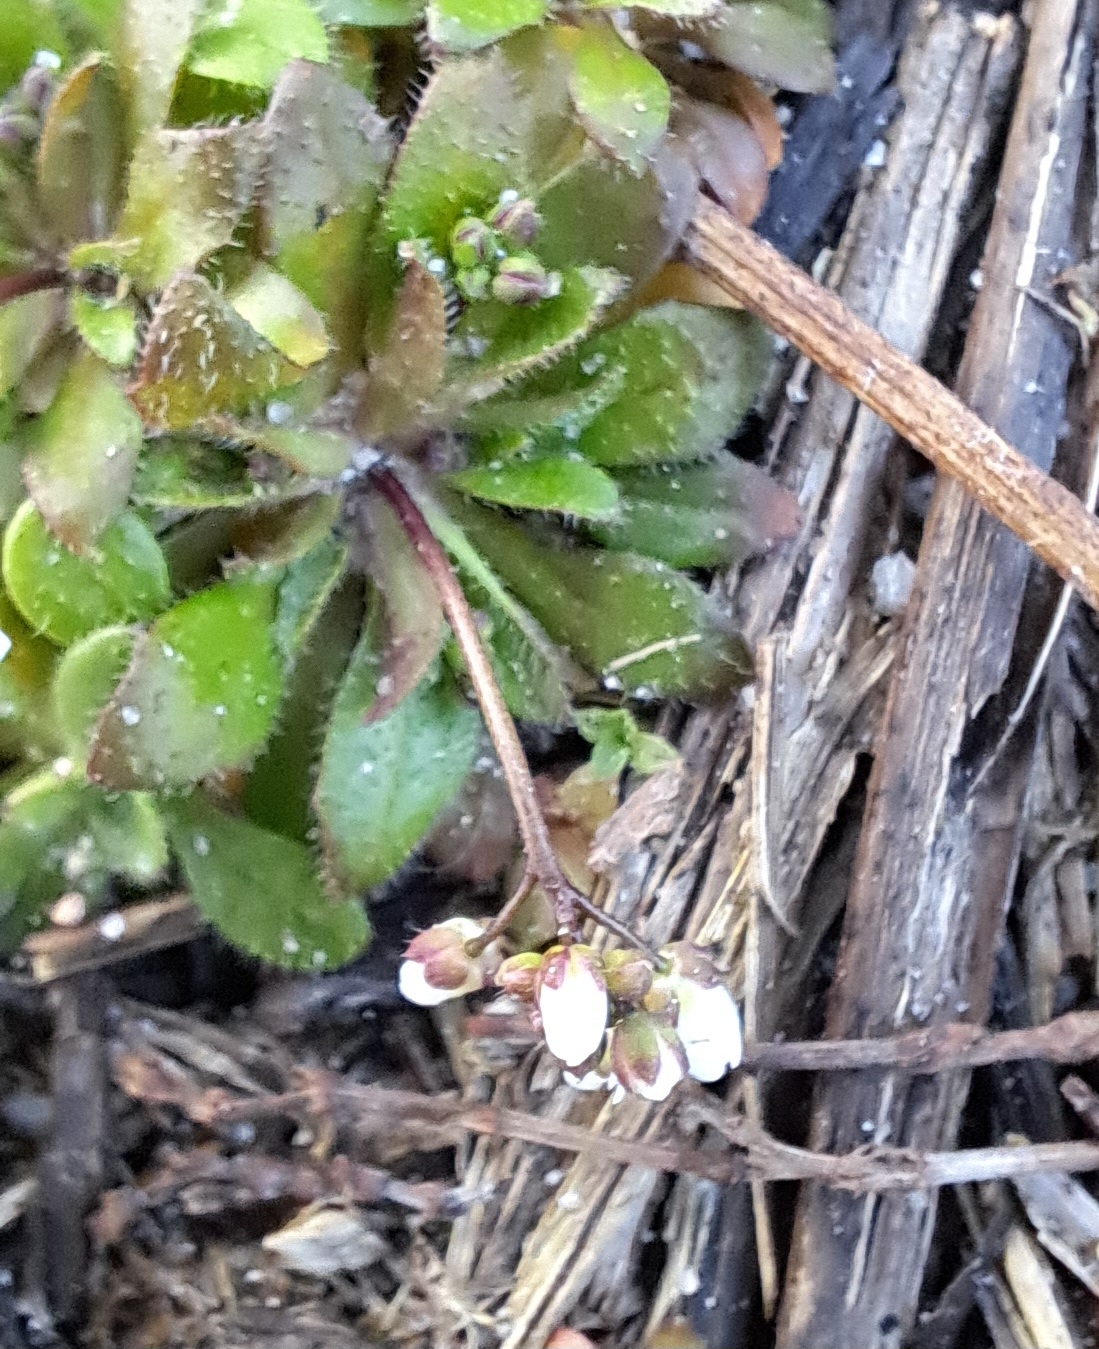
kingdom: Plantae
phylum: Tracheophyta
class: Magnoliopsida
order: Brassicales
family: Brassicaceae
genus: Draba
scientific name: Draba verna
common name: Spring draba
